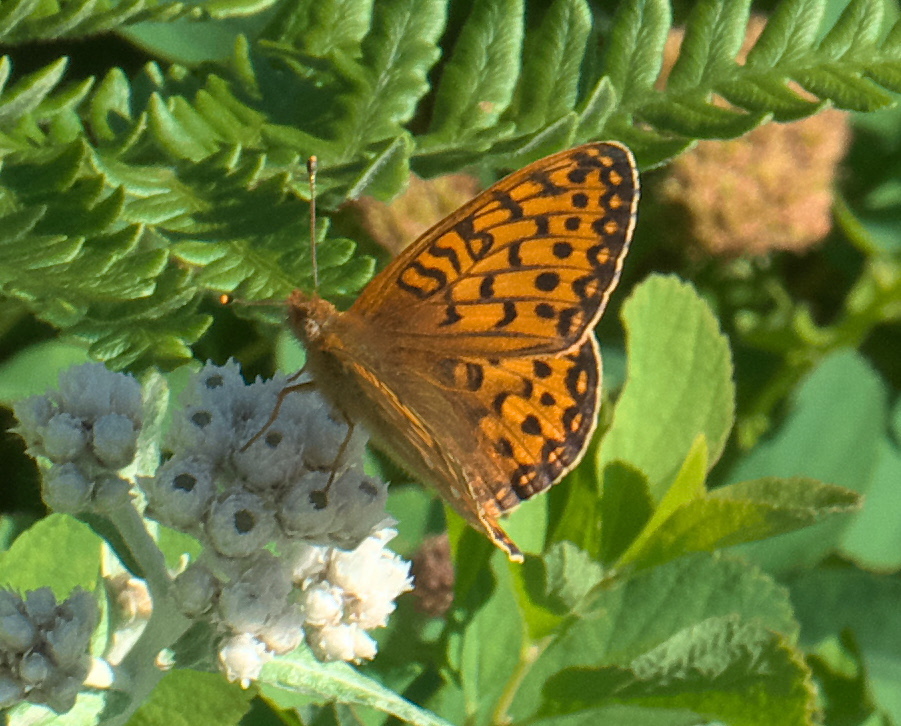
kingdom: Animalia
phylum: Arthropoda
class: Insecta
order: Lepidoptera
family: Nymphalidae
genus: Speyeria
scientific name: Speyeria mormonia
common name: Mormon fritillary
